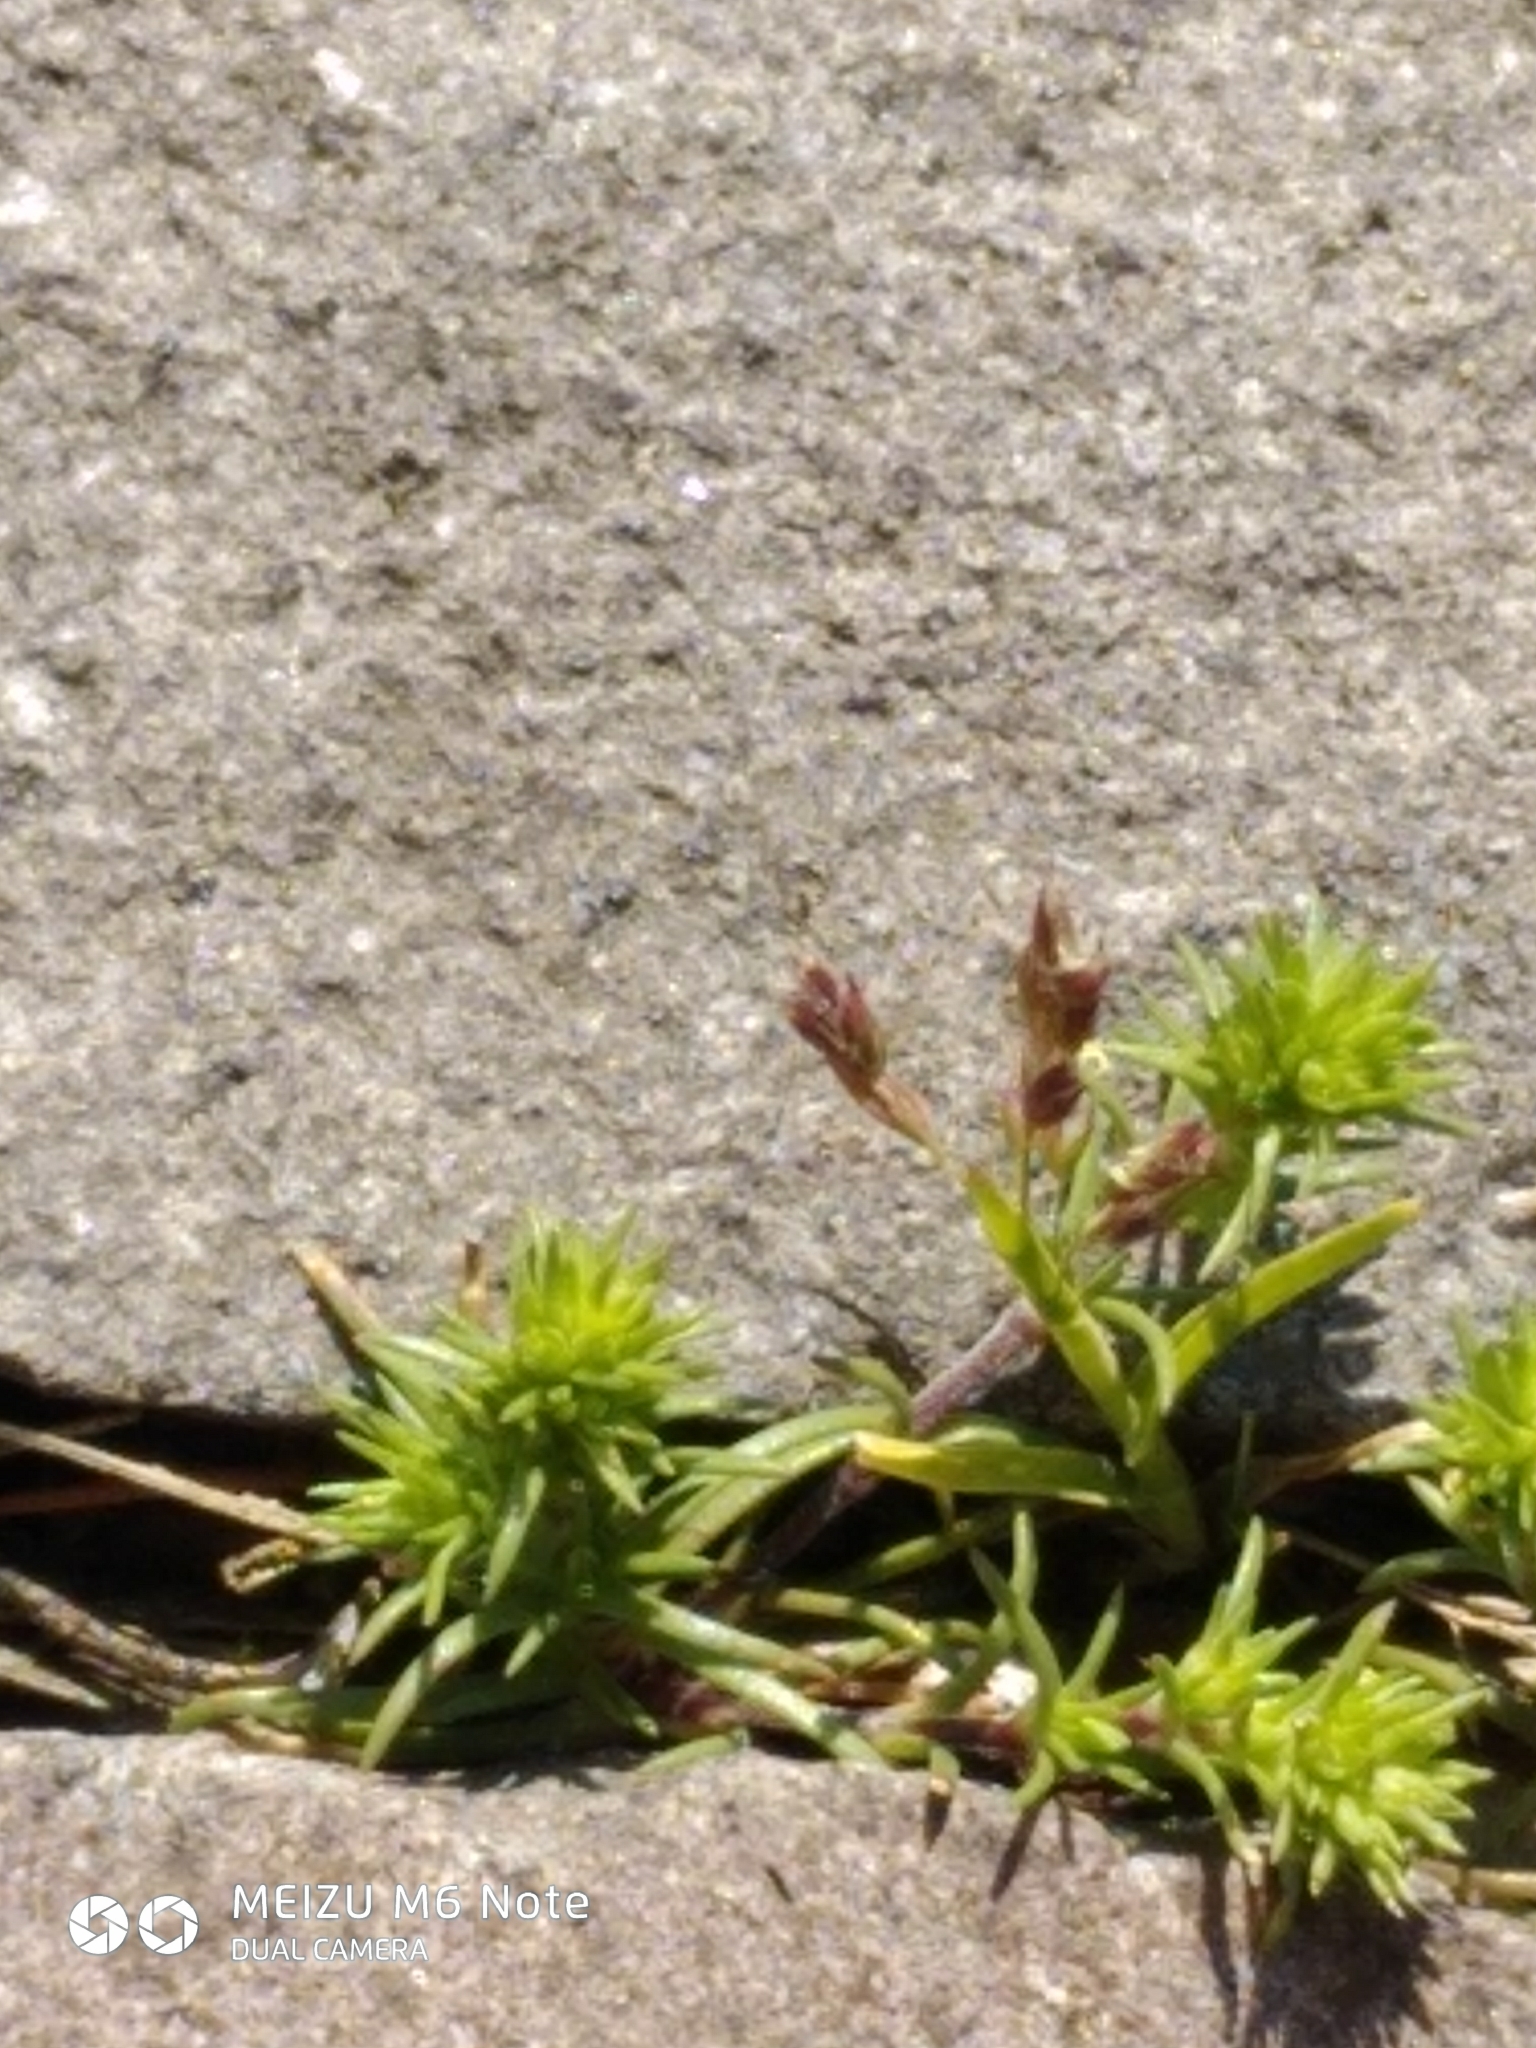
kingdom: Plantae
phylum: Tracheophyta
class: Magnoliopsida
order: Caryophyllales
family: Caryophyllaceae
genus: Scleranthus
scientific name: Scleranthus annuus
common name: Annual knawel
